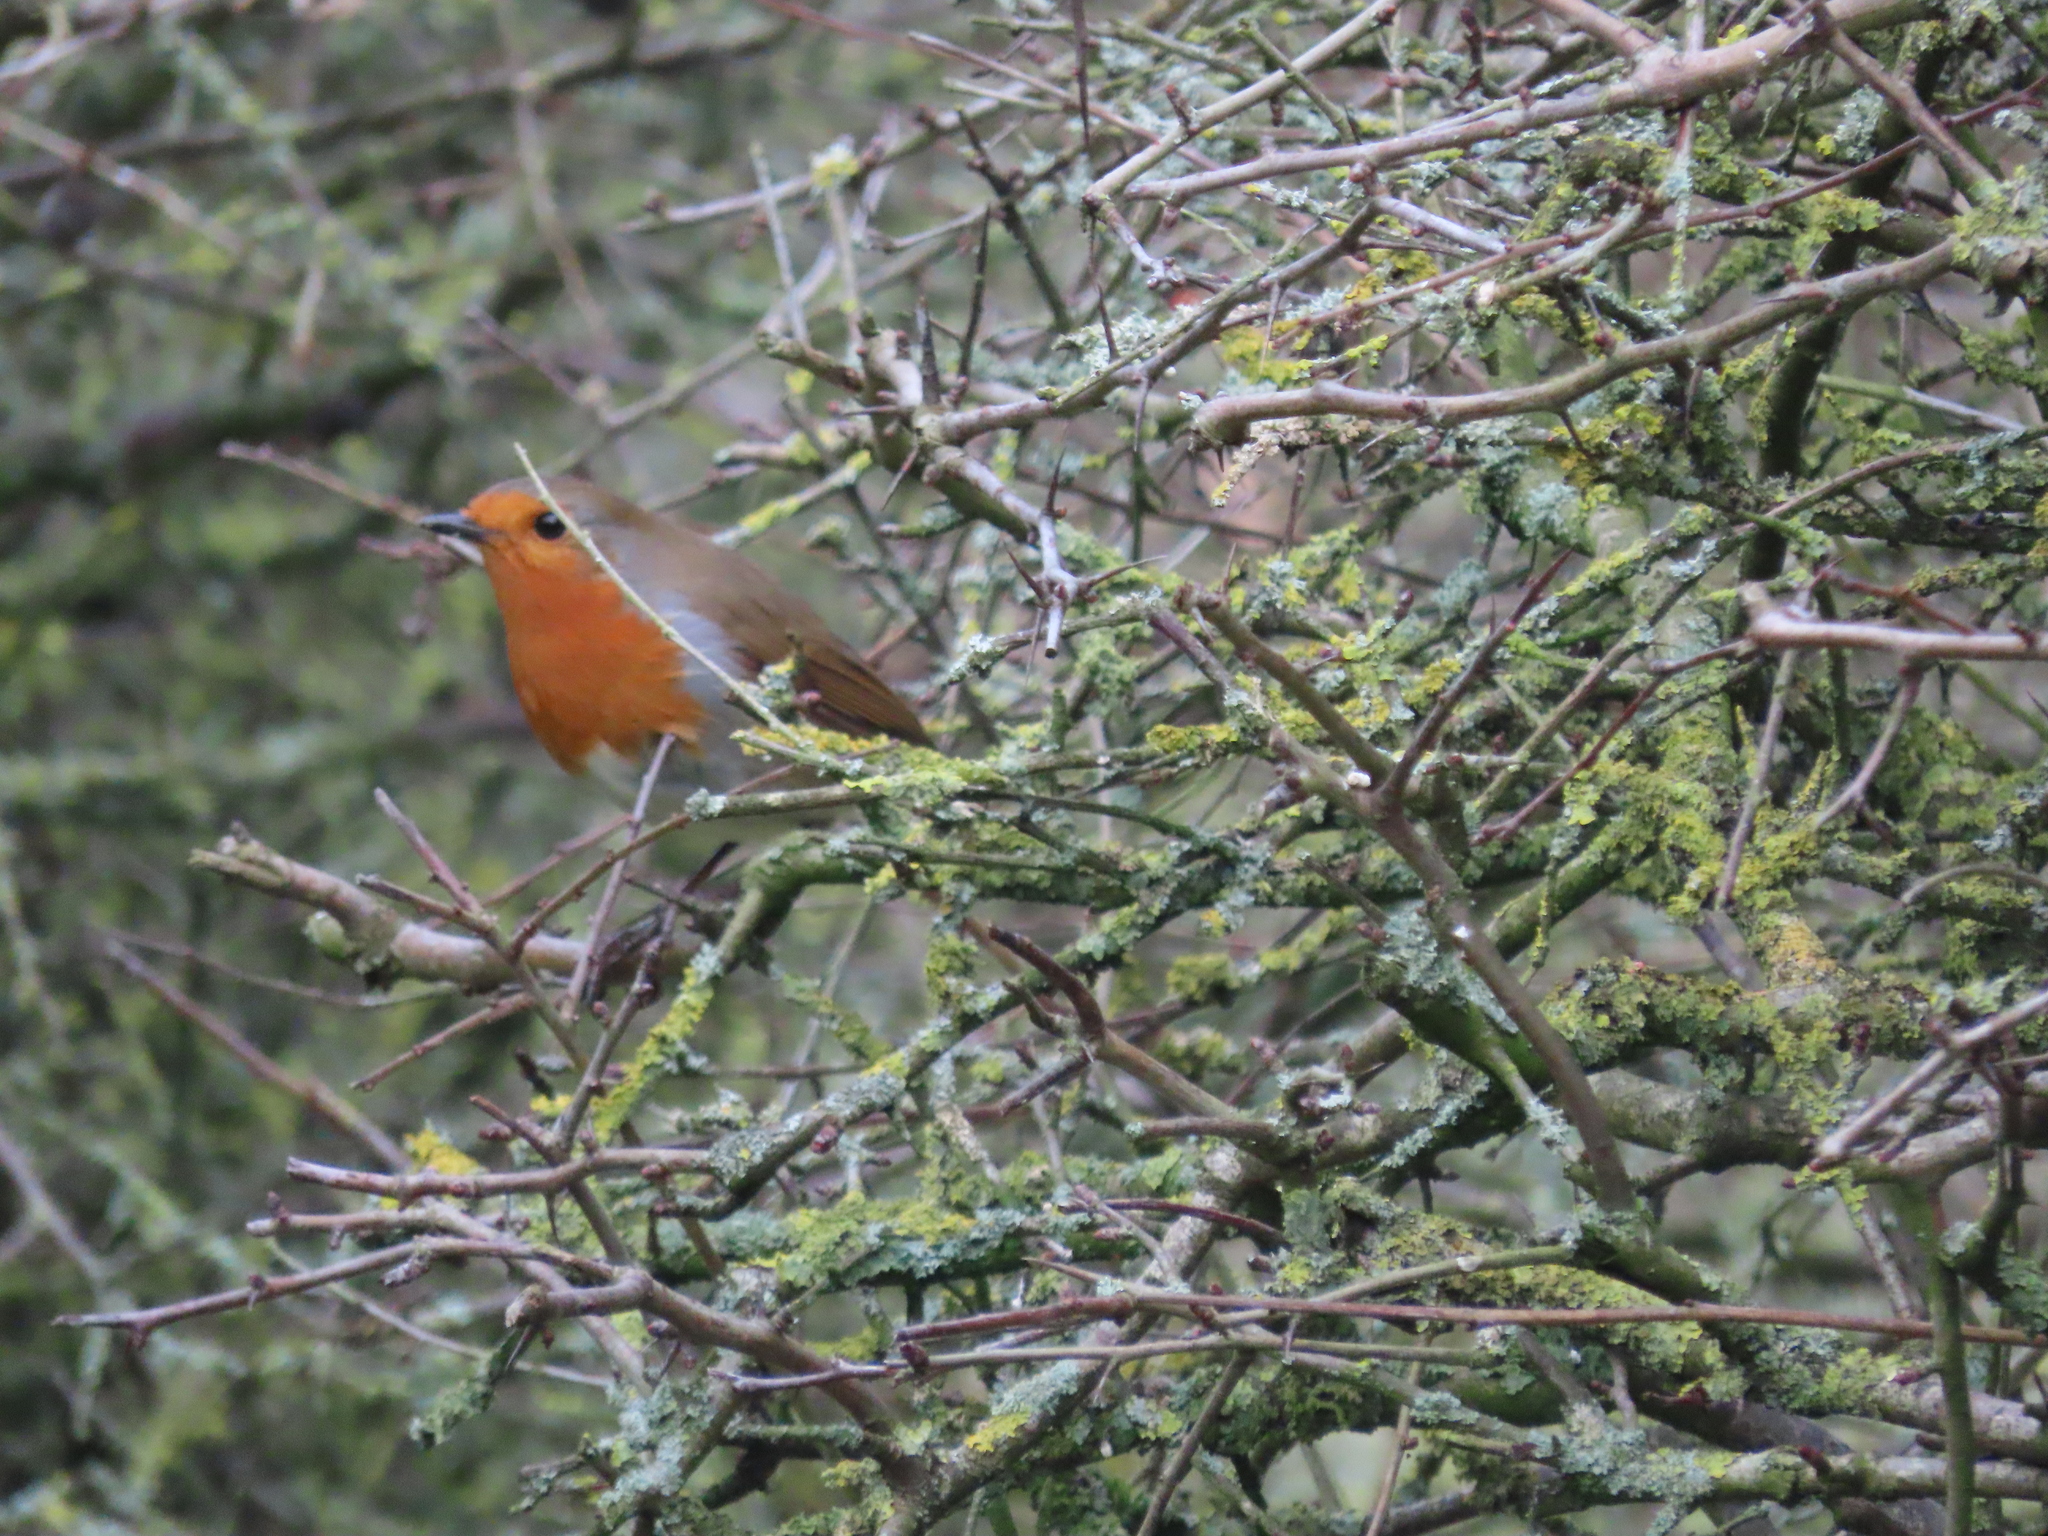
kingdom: Animalia
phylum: Chordata
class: Aves
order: Passeriformes
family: Muscicapidae
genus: Erithacus
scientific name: Erithacus rubecula
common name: European robin
